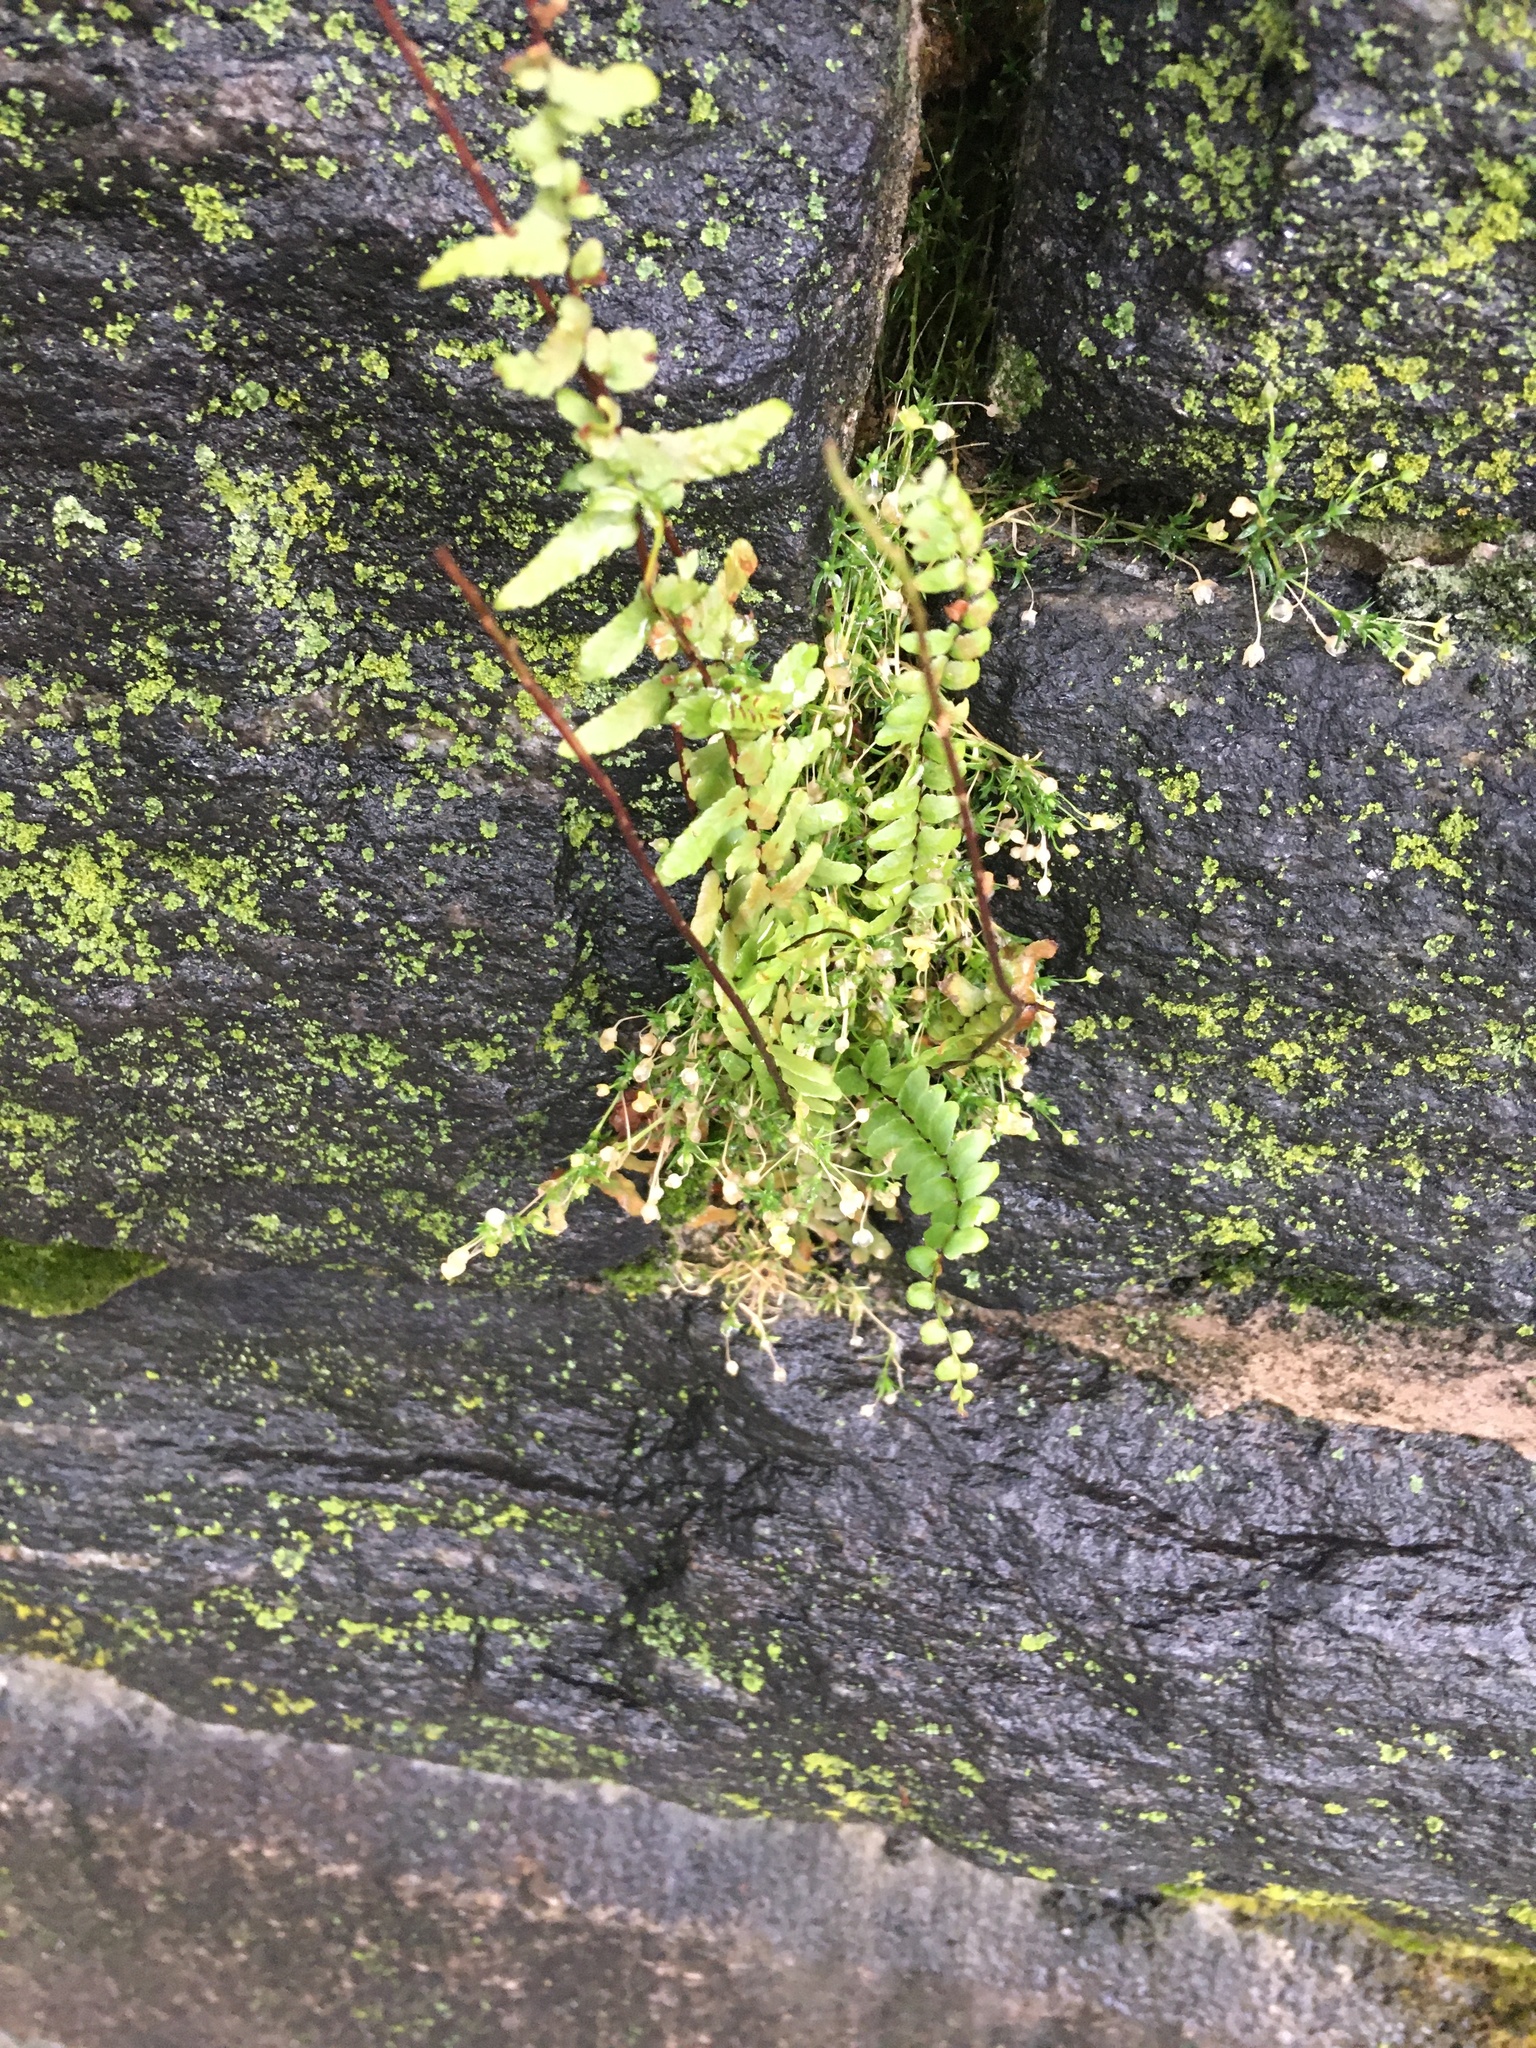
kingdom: Plantae
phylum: Tracheophyta
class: Polypodiopsida
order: Polypodiales
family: Aspleniaceae
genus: Asplenium
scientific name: Asplenium platyneuron
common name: Ebony spleenwort
